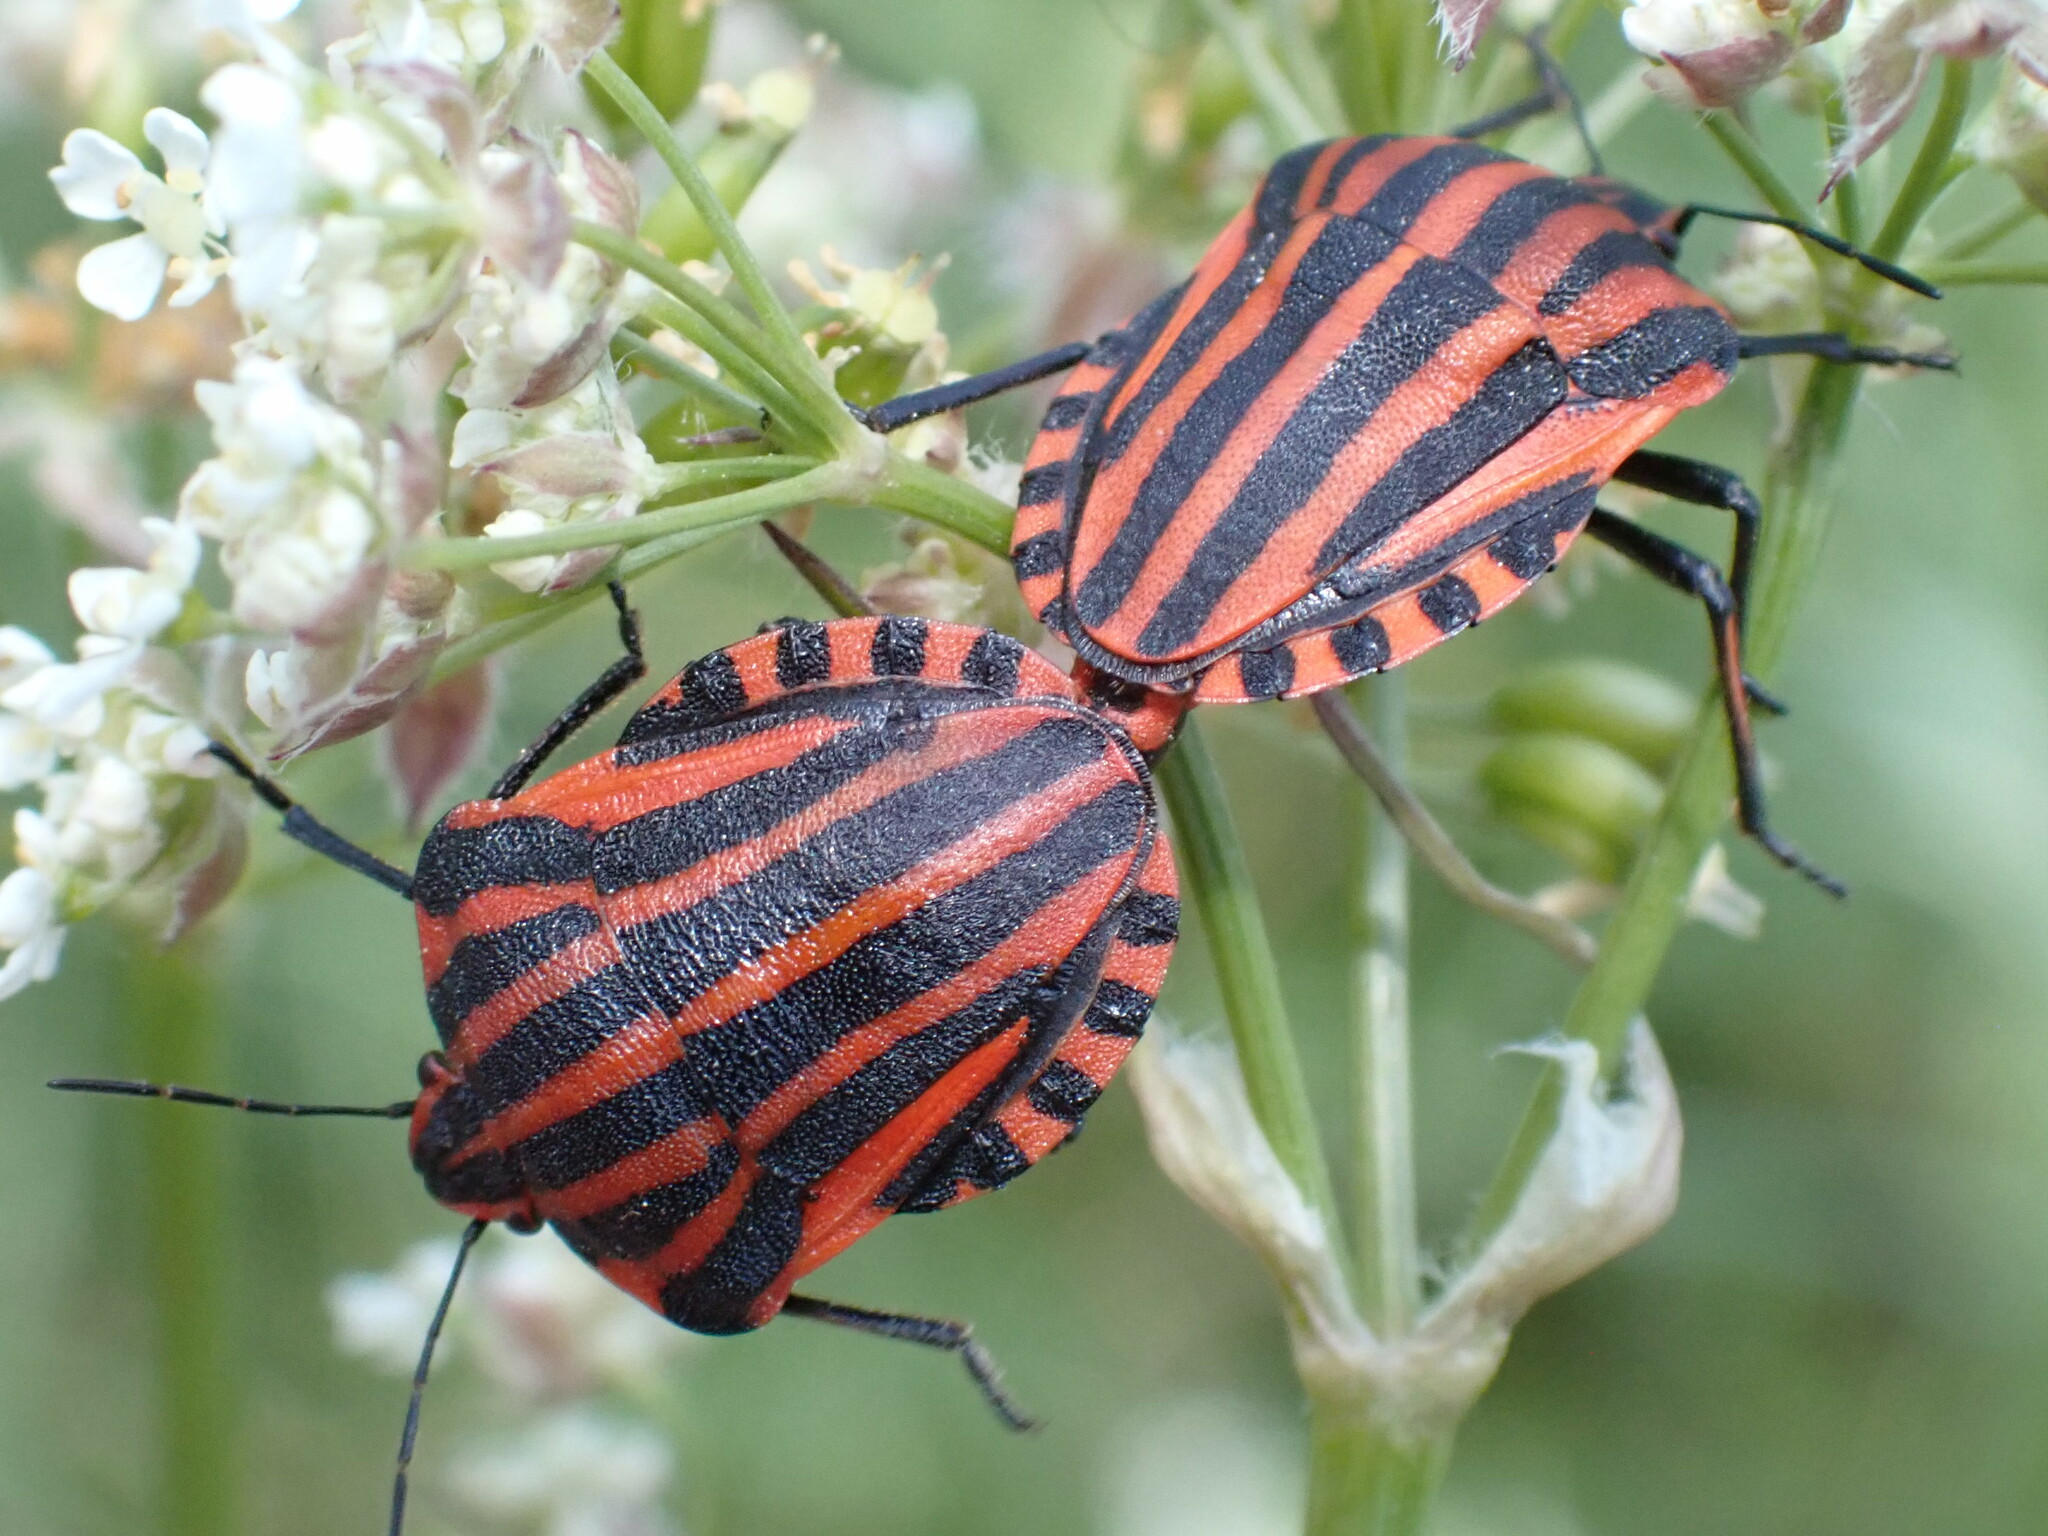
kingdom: Animalia
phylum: Arthropoda
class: Insecta
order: Hemiptera
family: Pentatomidae
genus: Graphosoma
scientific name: Graphosoma italicum
